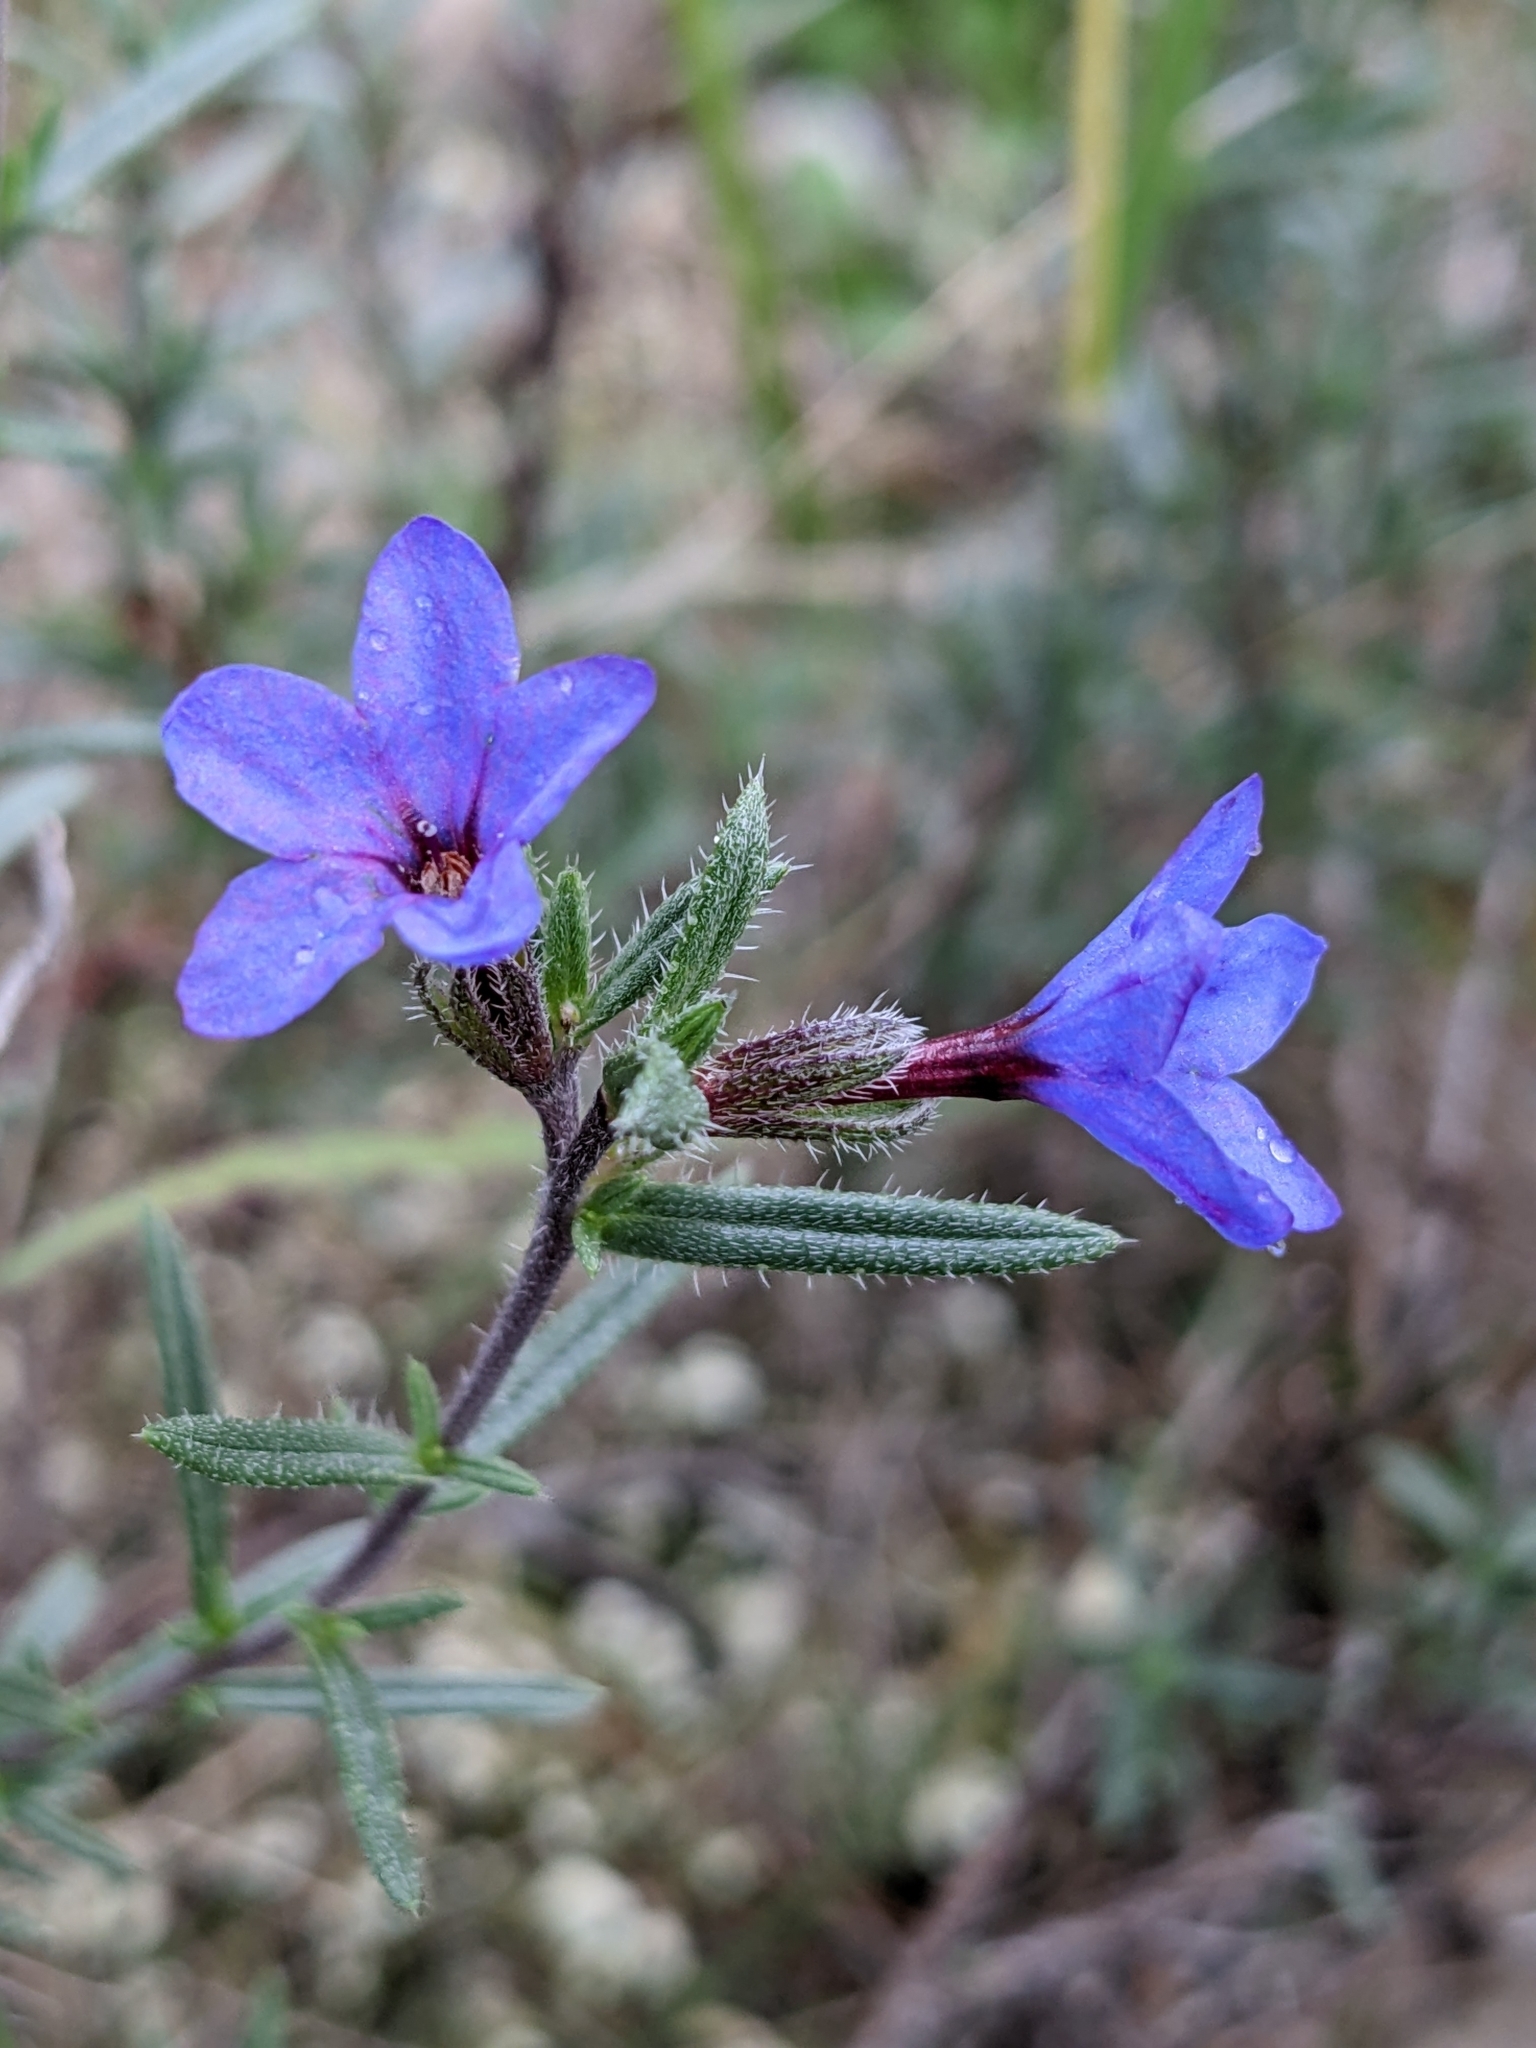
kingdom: Plantae
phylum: Tracheophyta
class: Magnoliopsida
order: Boraginales
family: Boraginaceae
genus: Lithodora
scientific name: Lithodora fruticosa
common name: Shrubby gromwell
